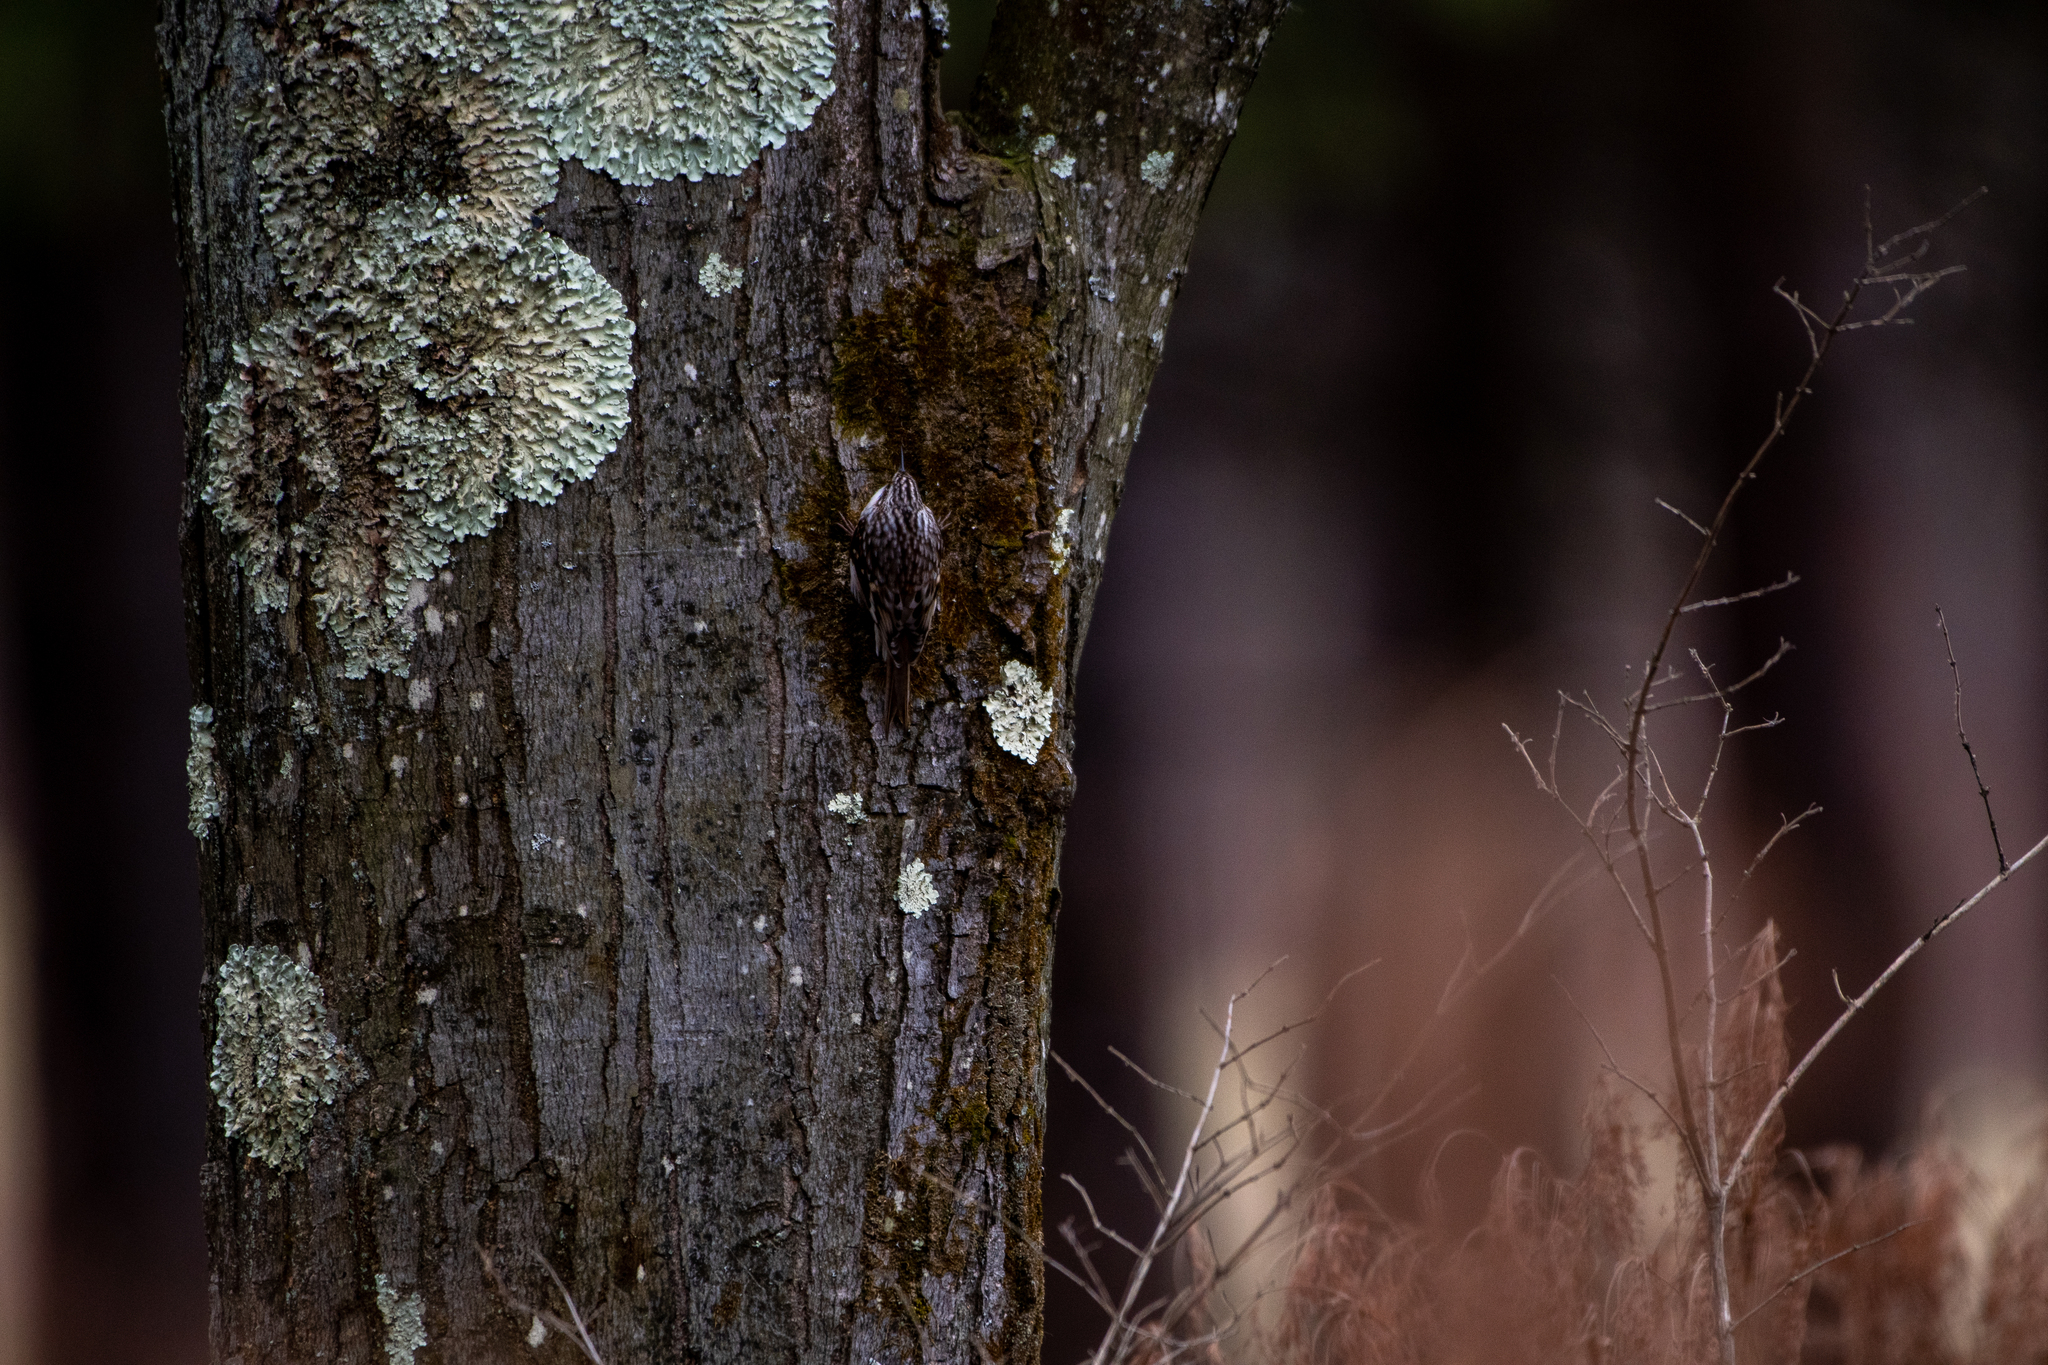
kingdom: Animalia
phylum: Chordata
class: Aves
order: Passeriformes
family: Certhiidae
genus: Certhia
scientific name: Certhia americana
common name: Brown creeper
